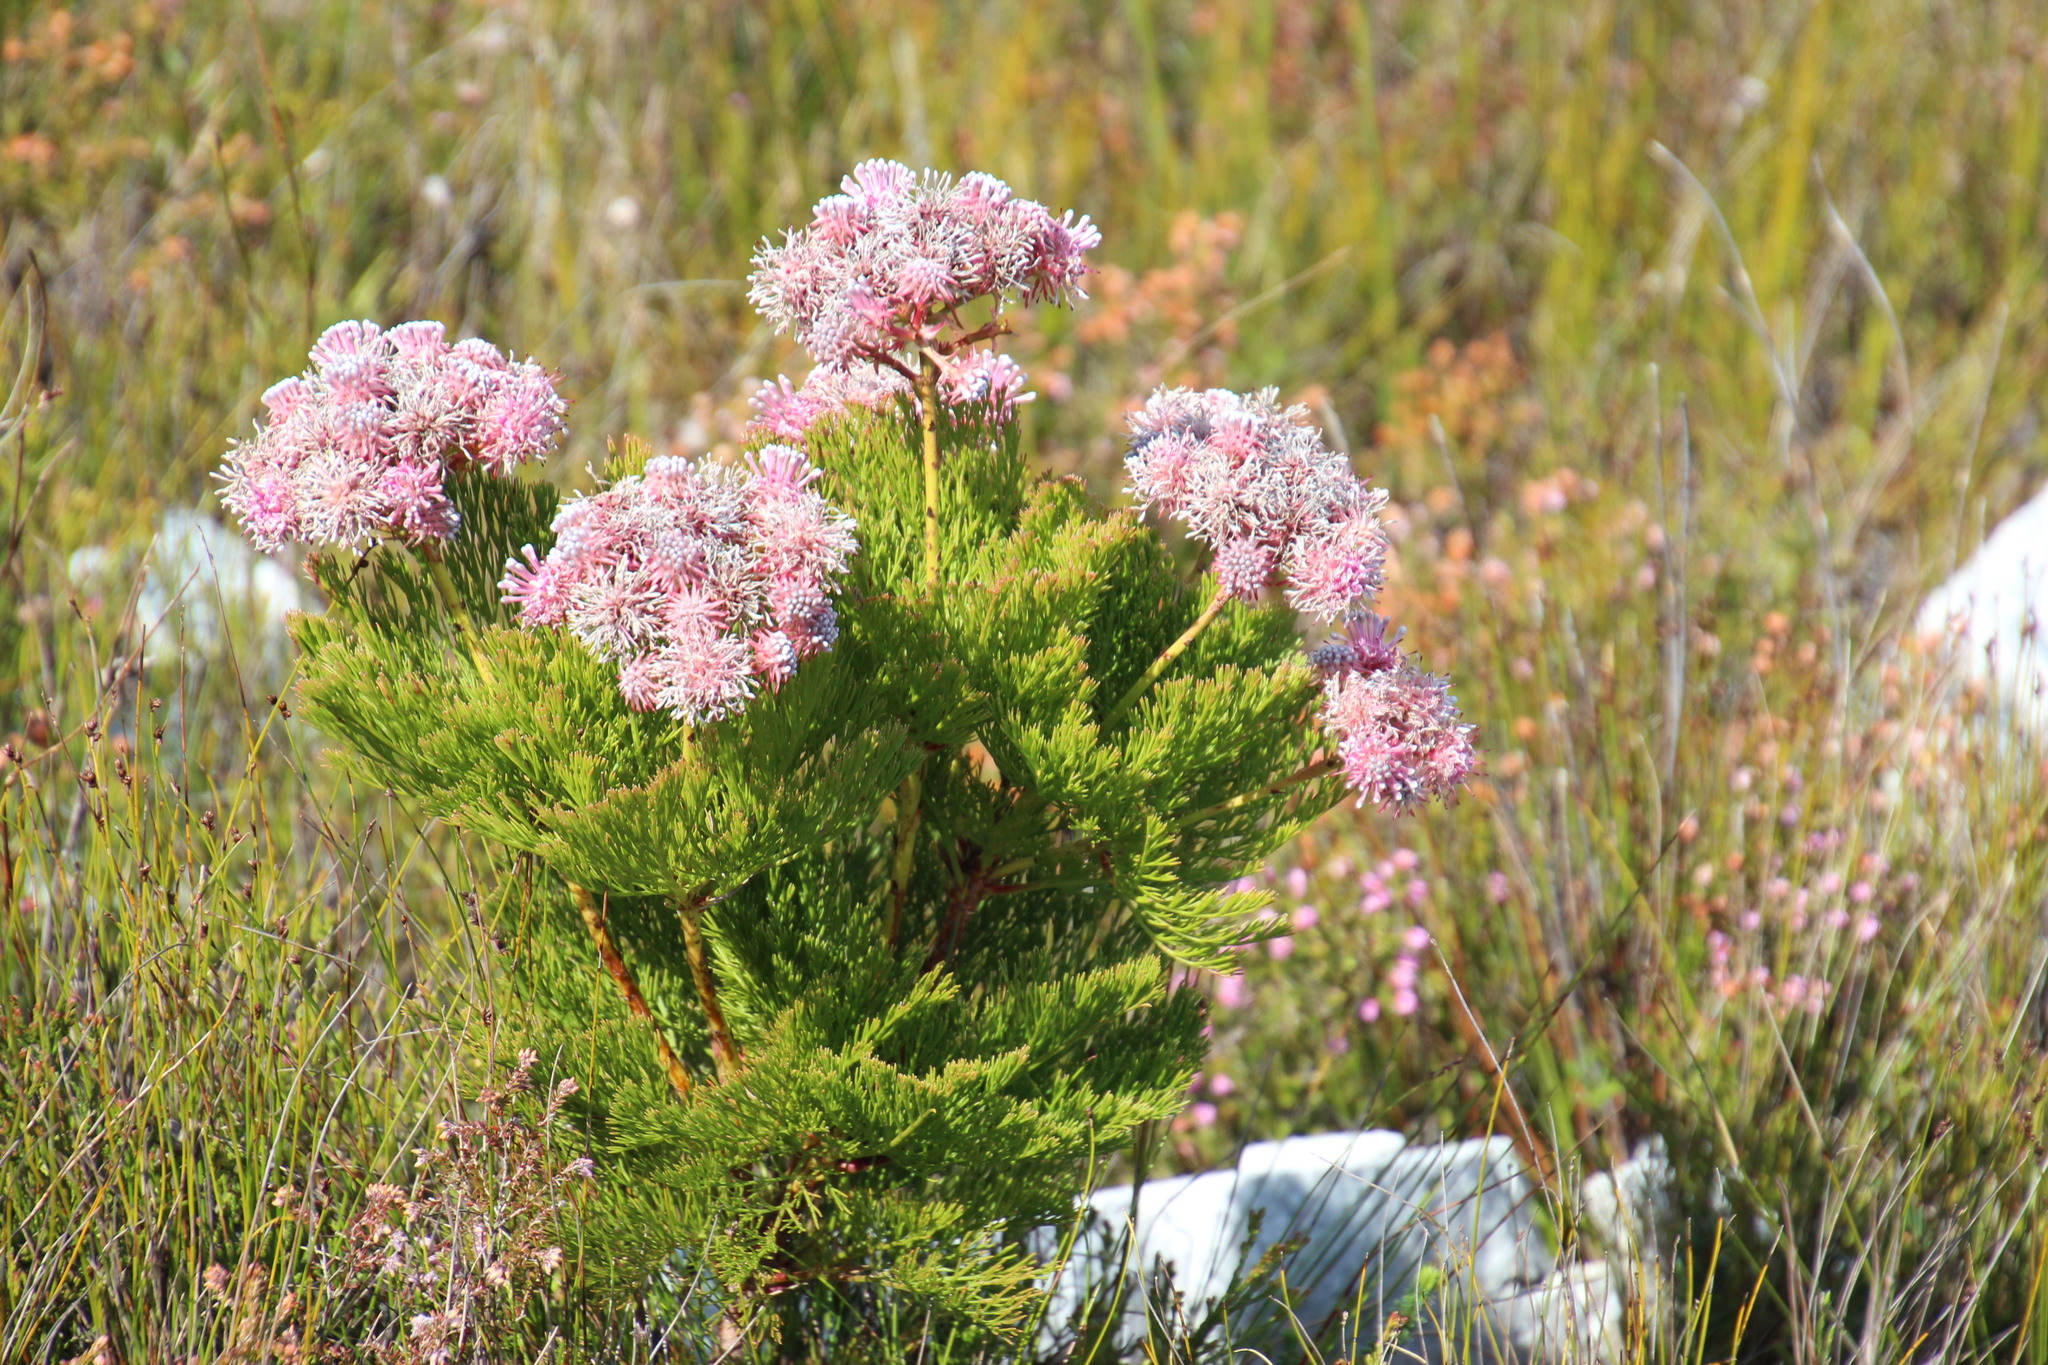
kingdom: Plantae
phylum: Tracheophyta
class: Magnoliopsida
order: Proteales
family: Proteaceae
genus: Serruria
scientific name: Serruria elongata
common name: Long-stalk spiderhead
